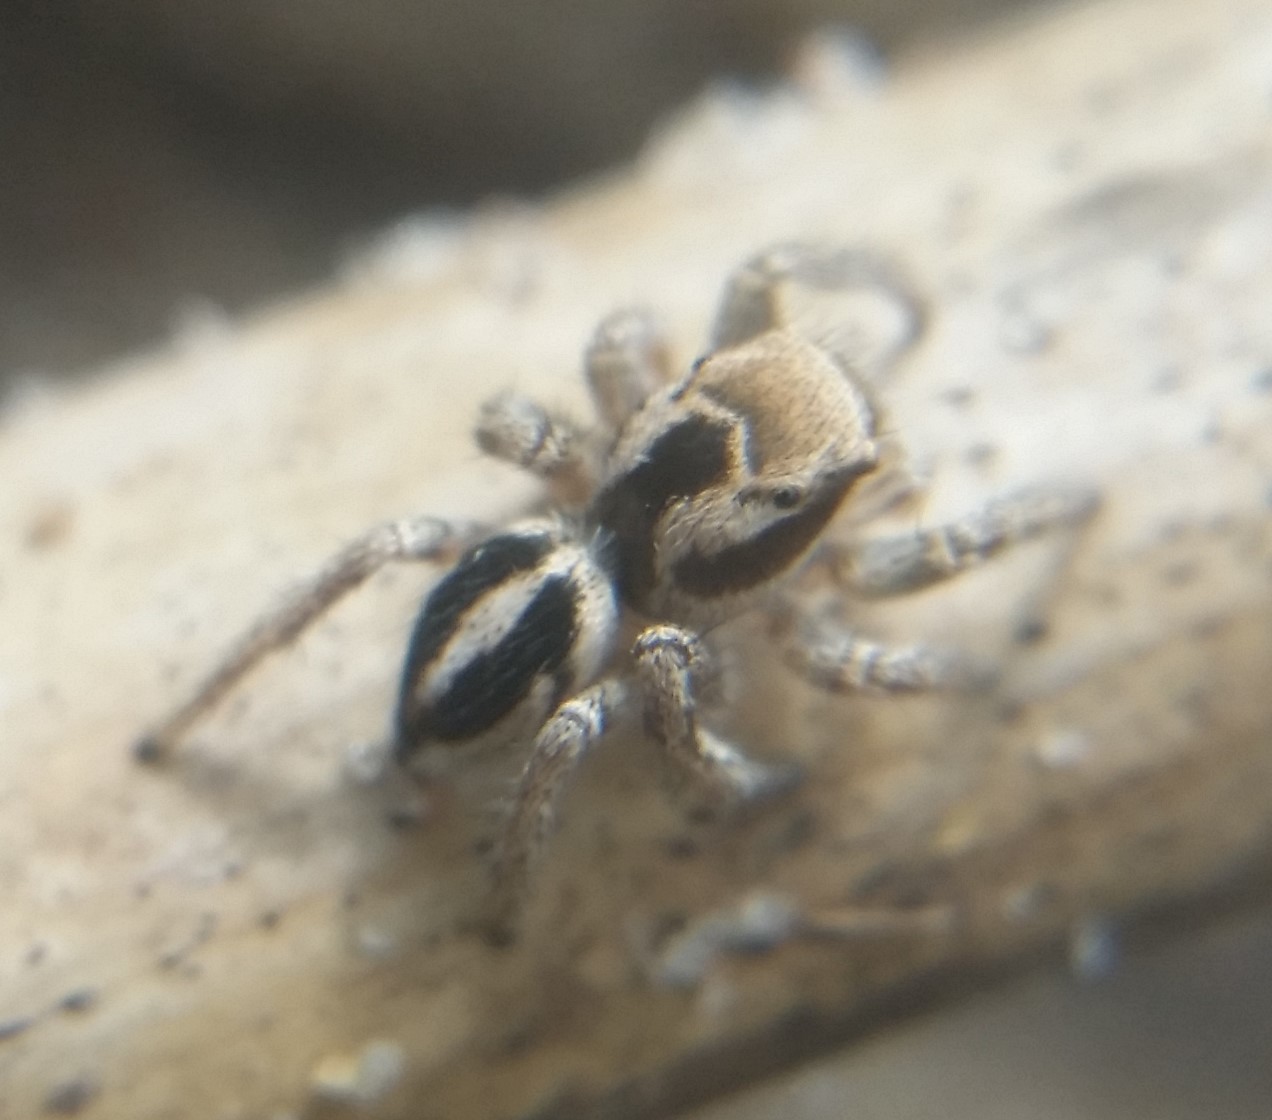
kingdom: Animalia
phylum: Arthropoda
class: Arachnida
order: Araneae
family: Salticidae
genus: Habronattus
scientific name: Habronattus viridipes
